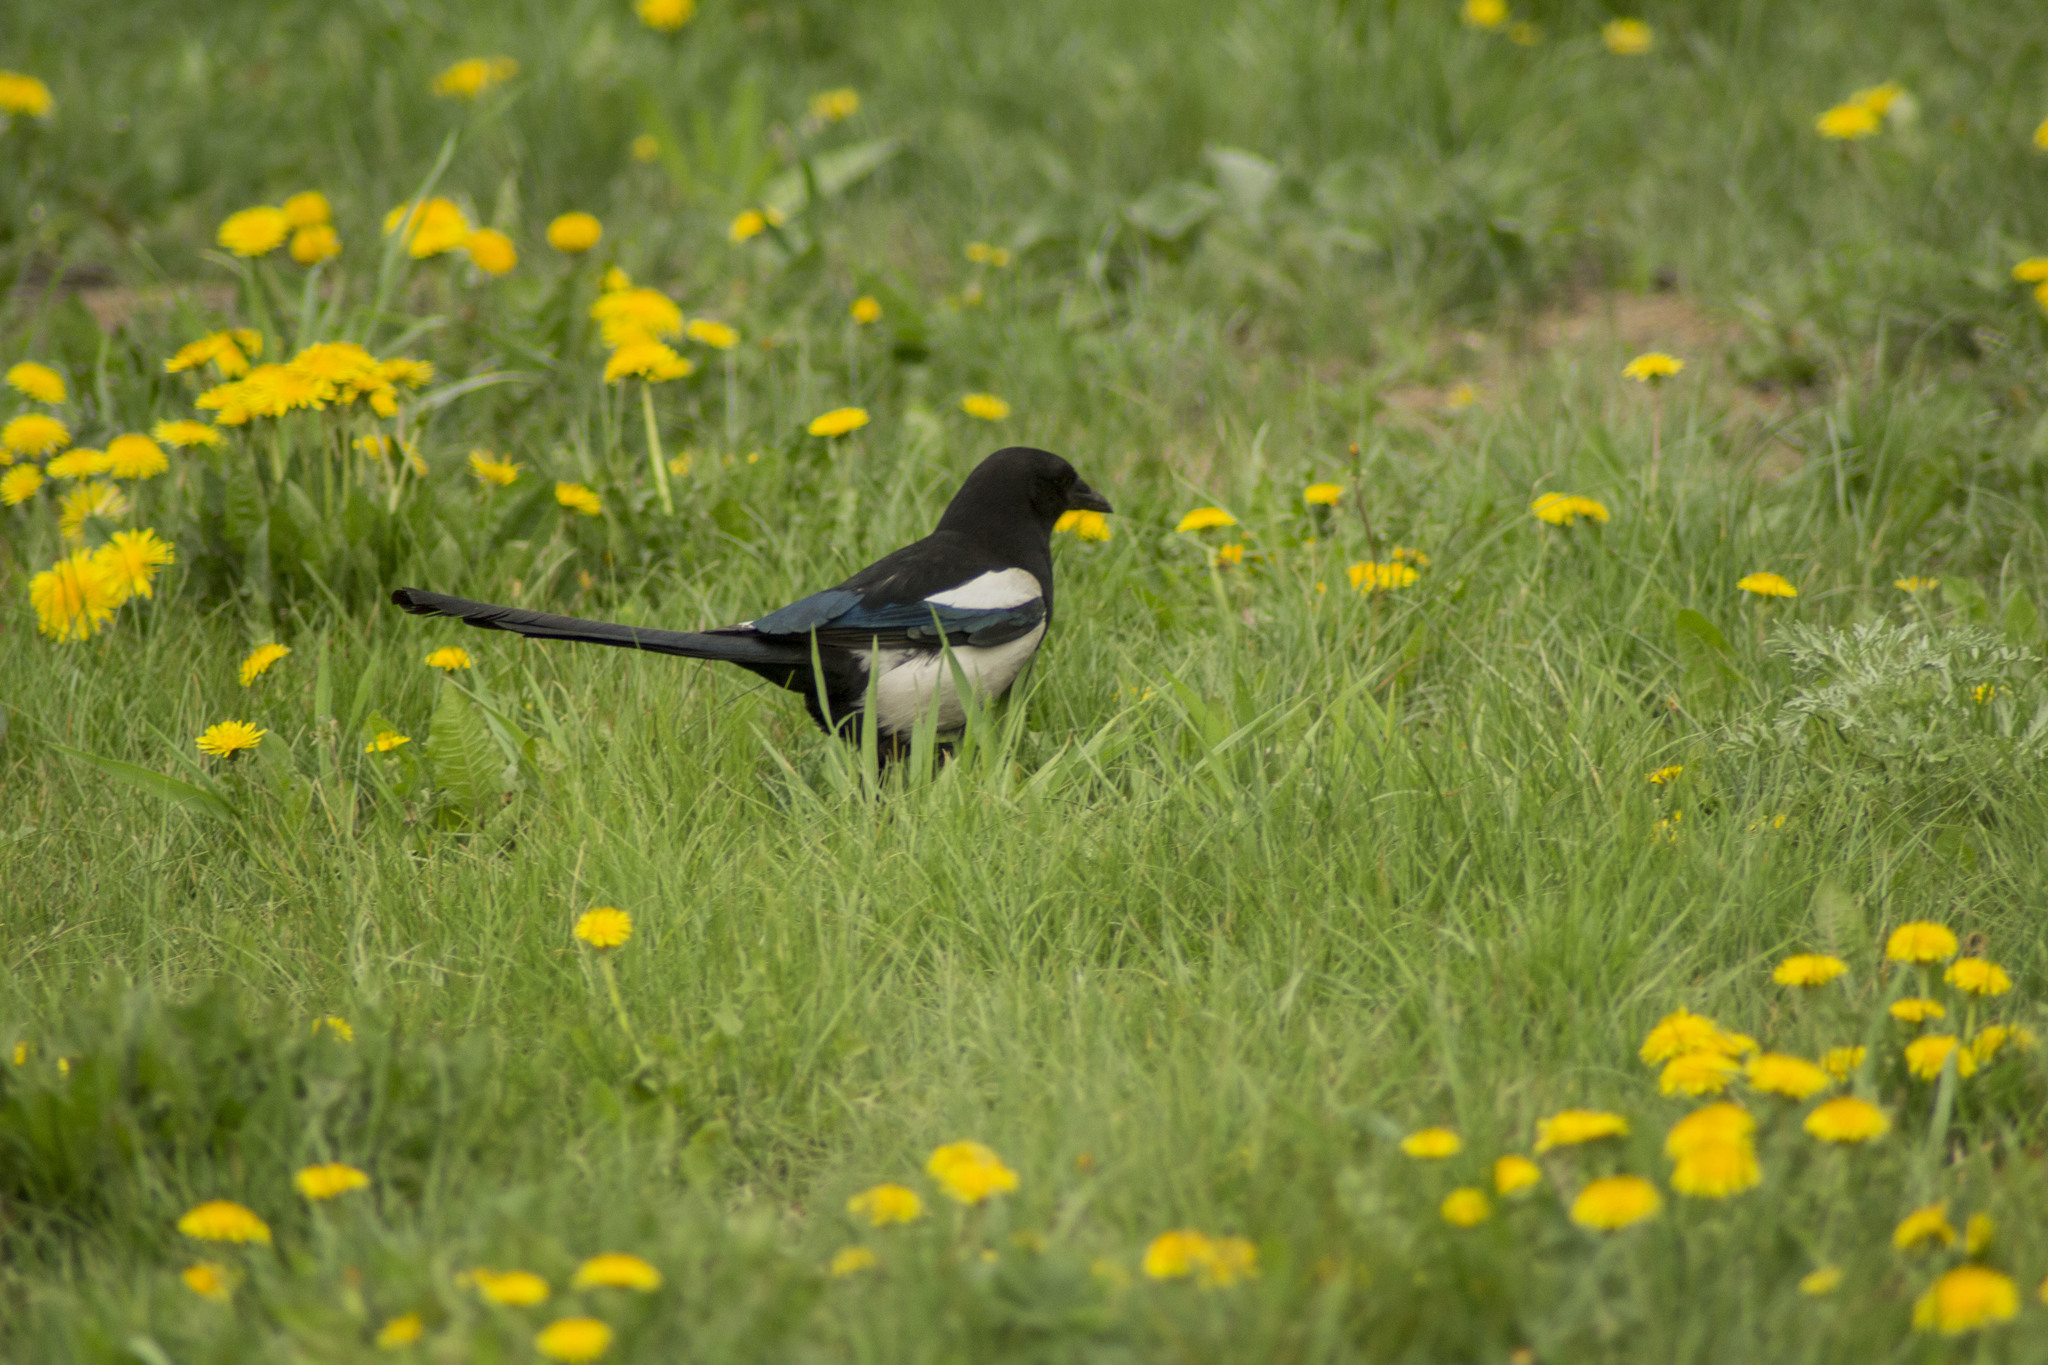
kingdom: Animalia
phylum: Chordata
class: Aves
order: Passeriformes
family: Corvidae
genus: Pica
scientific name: Pica pica
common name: Eurasian magpie
